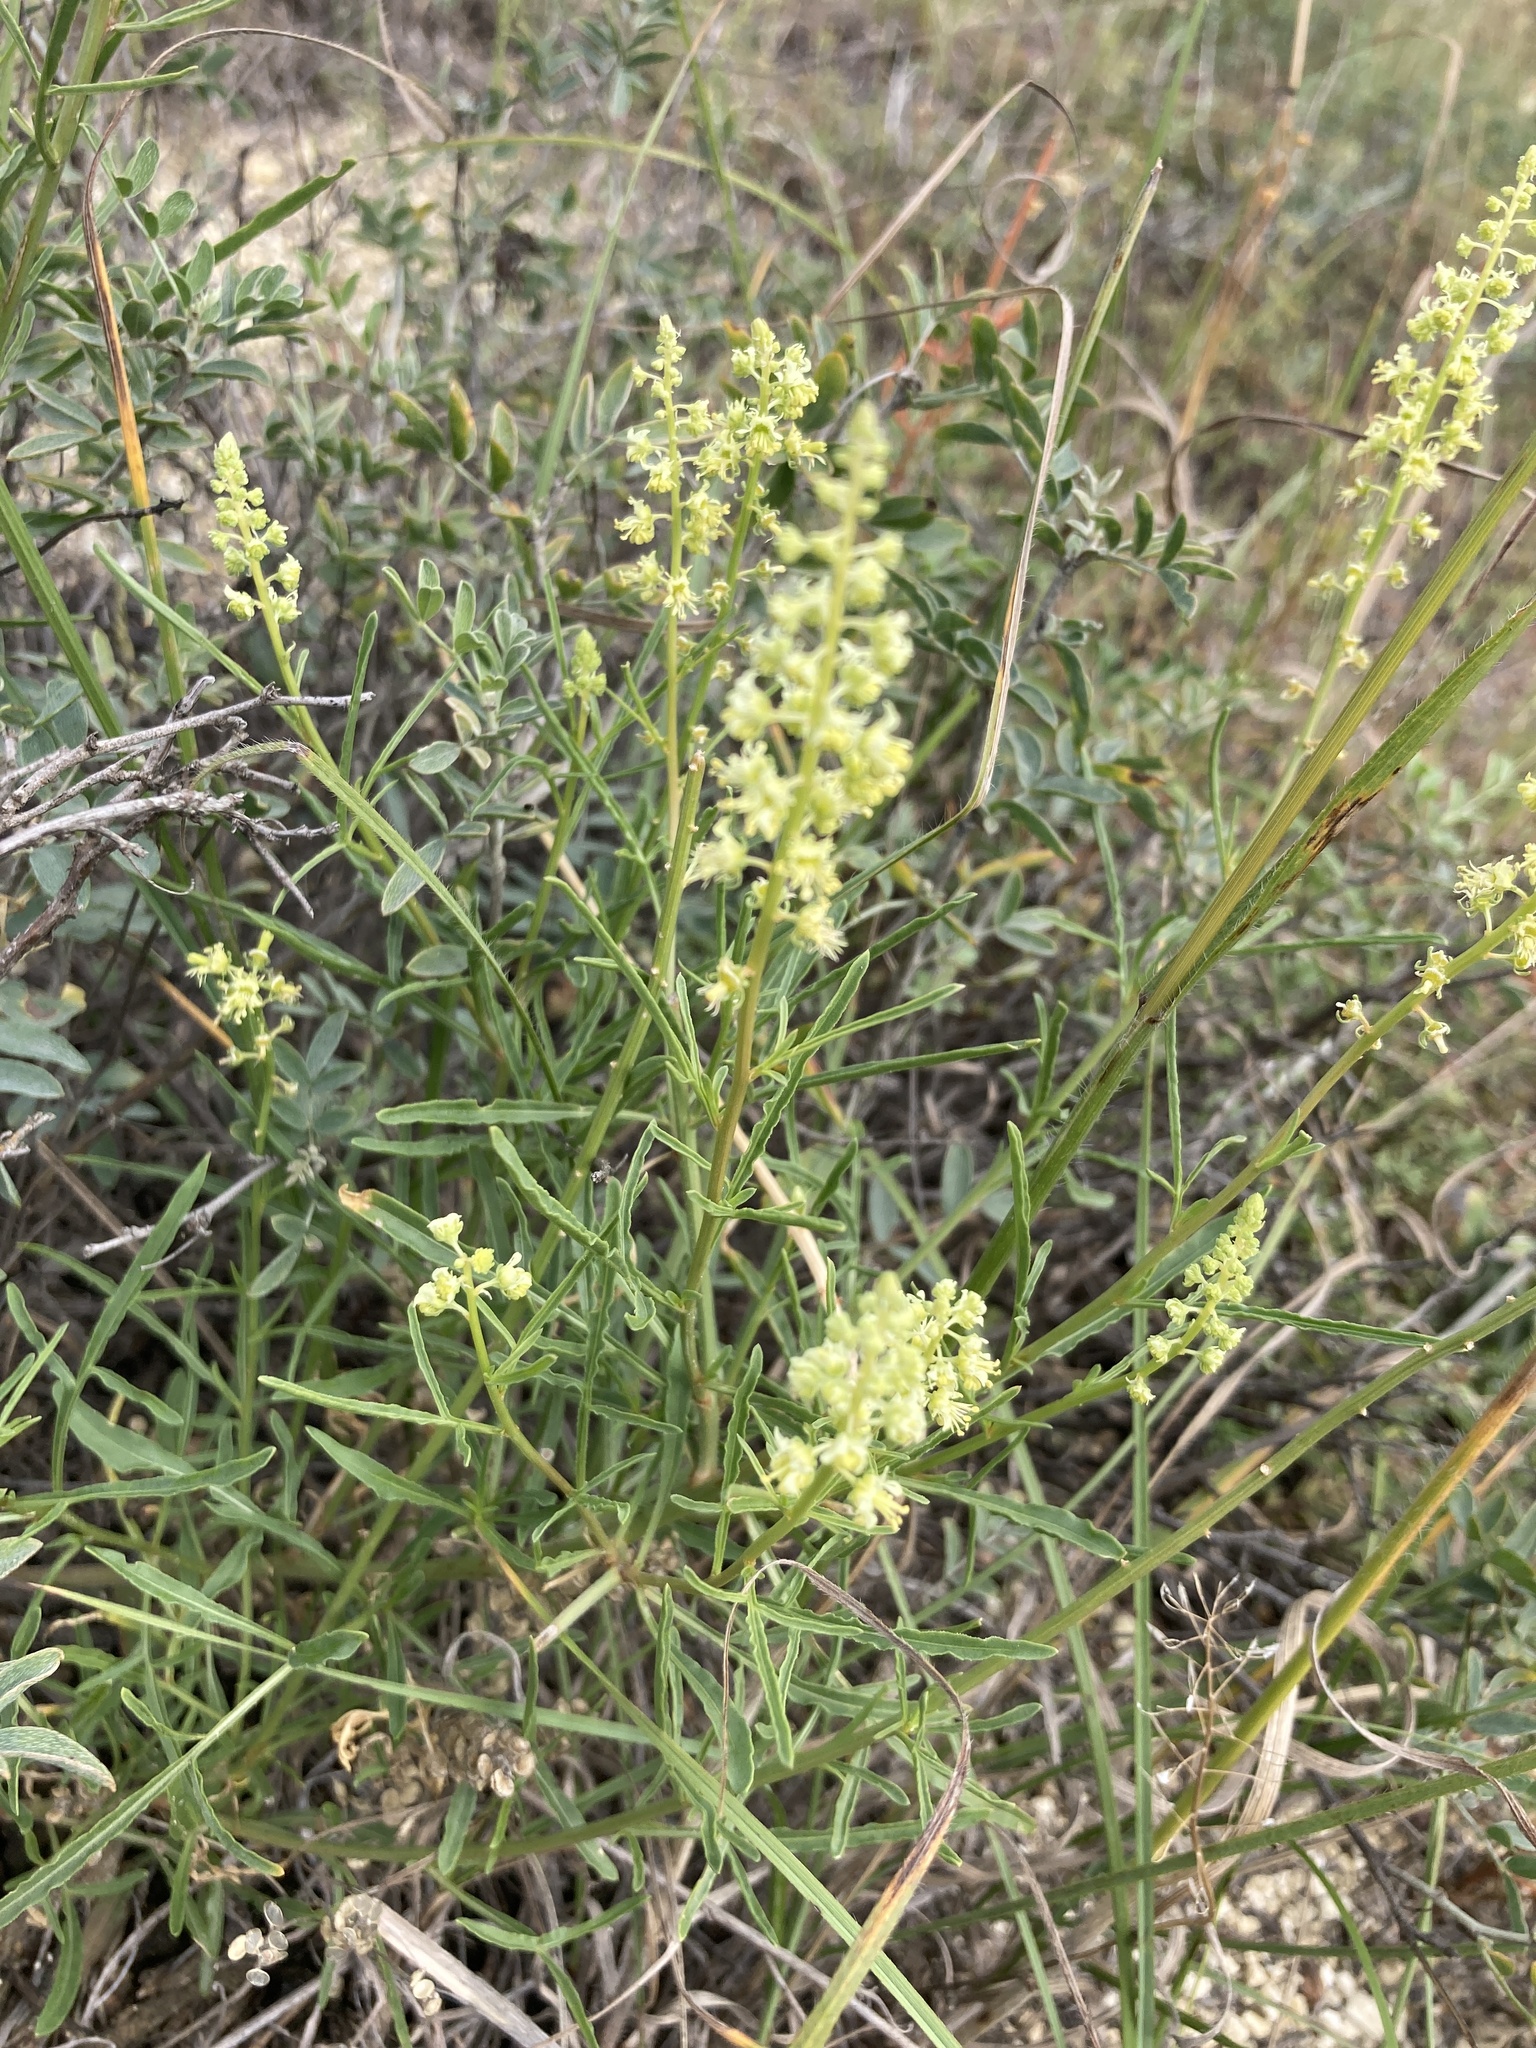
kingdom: Plantae
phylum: Tracheophyta
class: Magnoliopsida
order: Brassicales
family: Resedaceae
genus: Reseda
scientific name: Reseda lutea
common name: Wild mignonette
